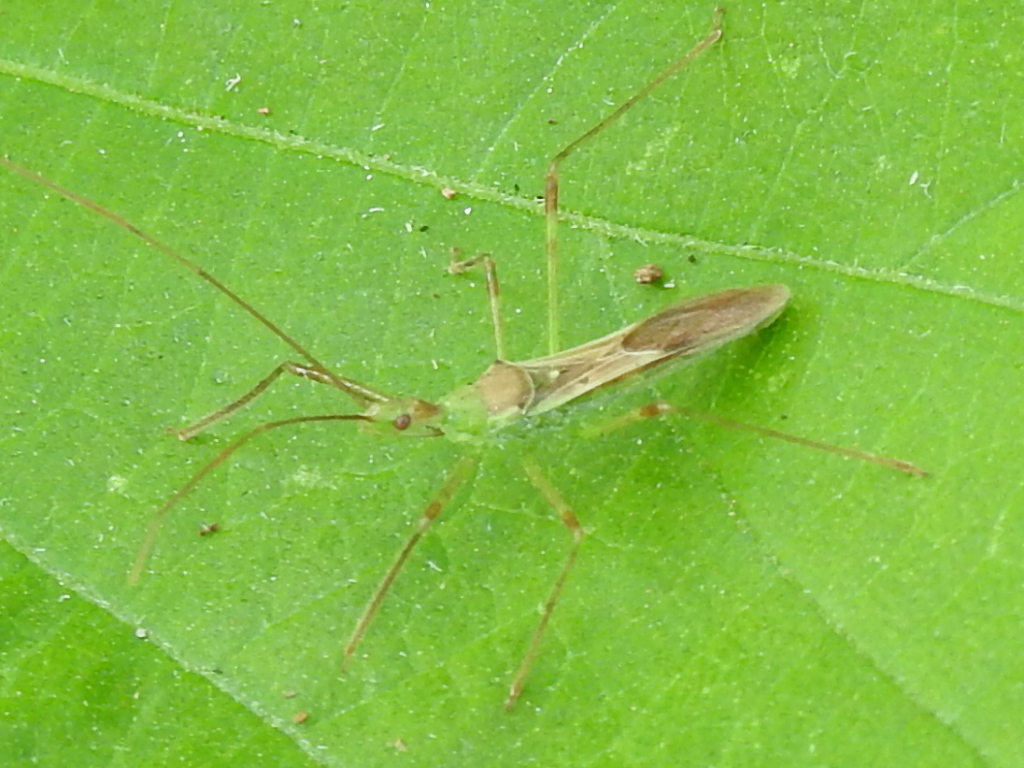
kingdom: Animalia
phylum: Arthropoda
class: Insecta
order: Hemiptera
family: Reduviidae
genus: Zelus
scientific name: Zelus luridus
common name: Pale green assassin bug
